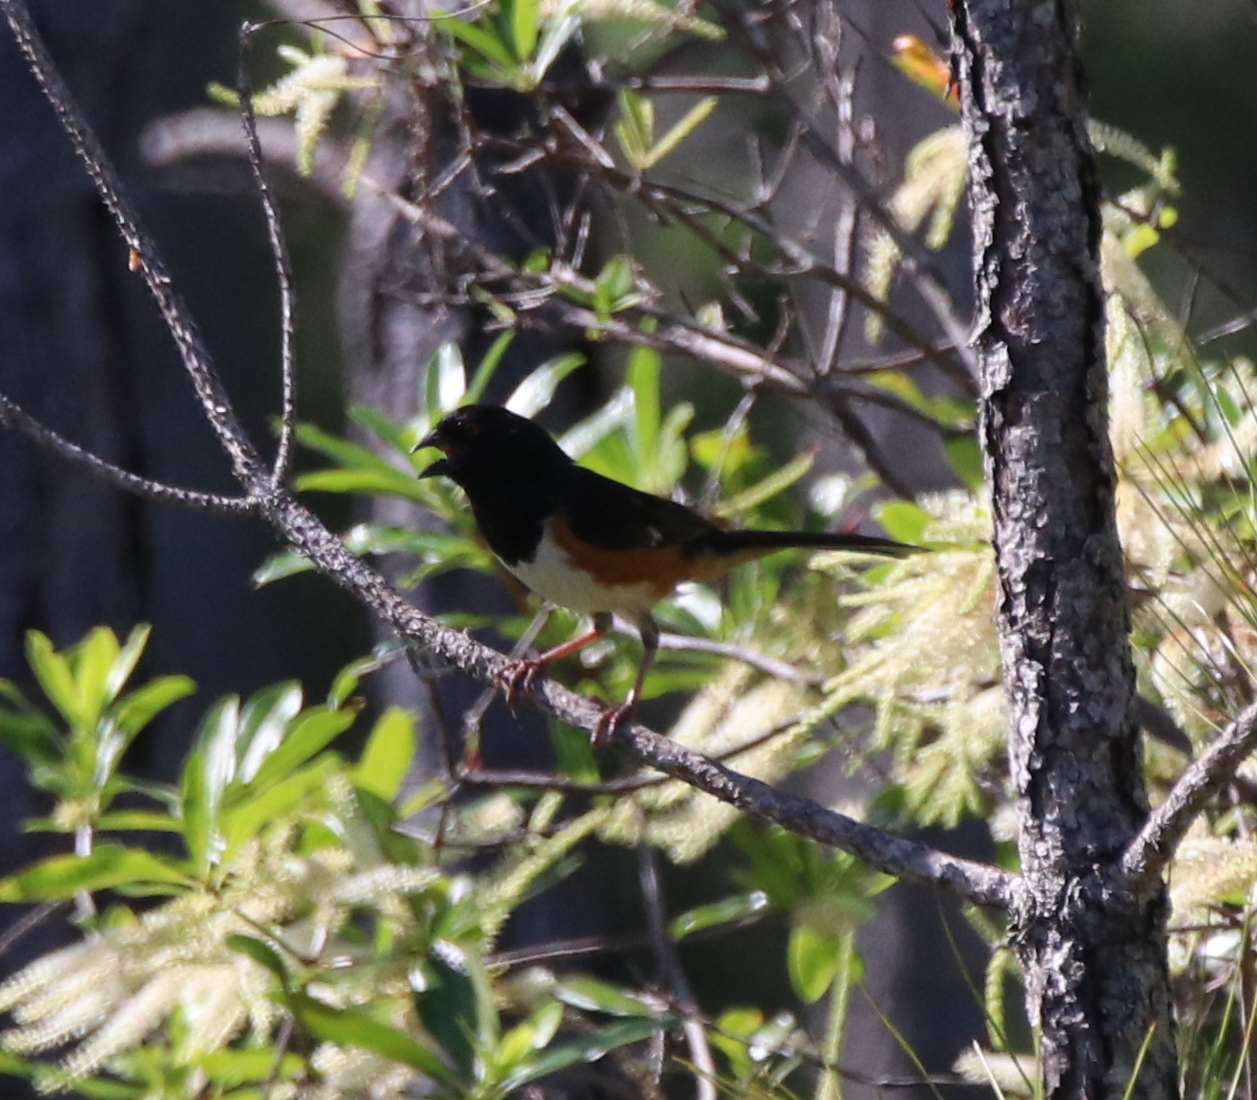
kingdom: Animalia
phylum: Chordata
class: Aves
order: Passeriformes
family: Passerellidae
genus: Pipilo
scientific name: Pipilo erythrophthalmus
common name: Eastern towhee
